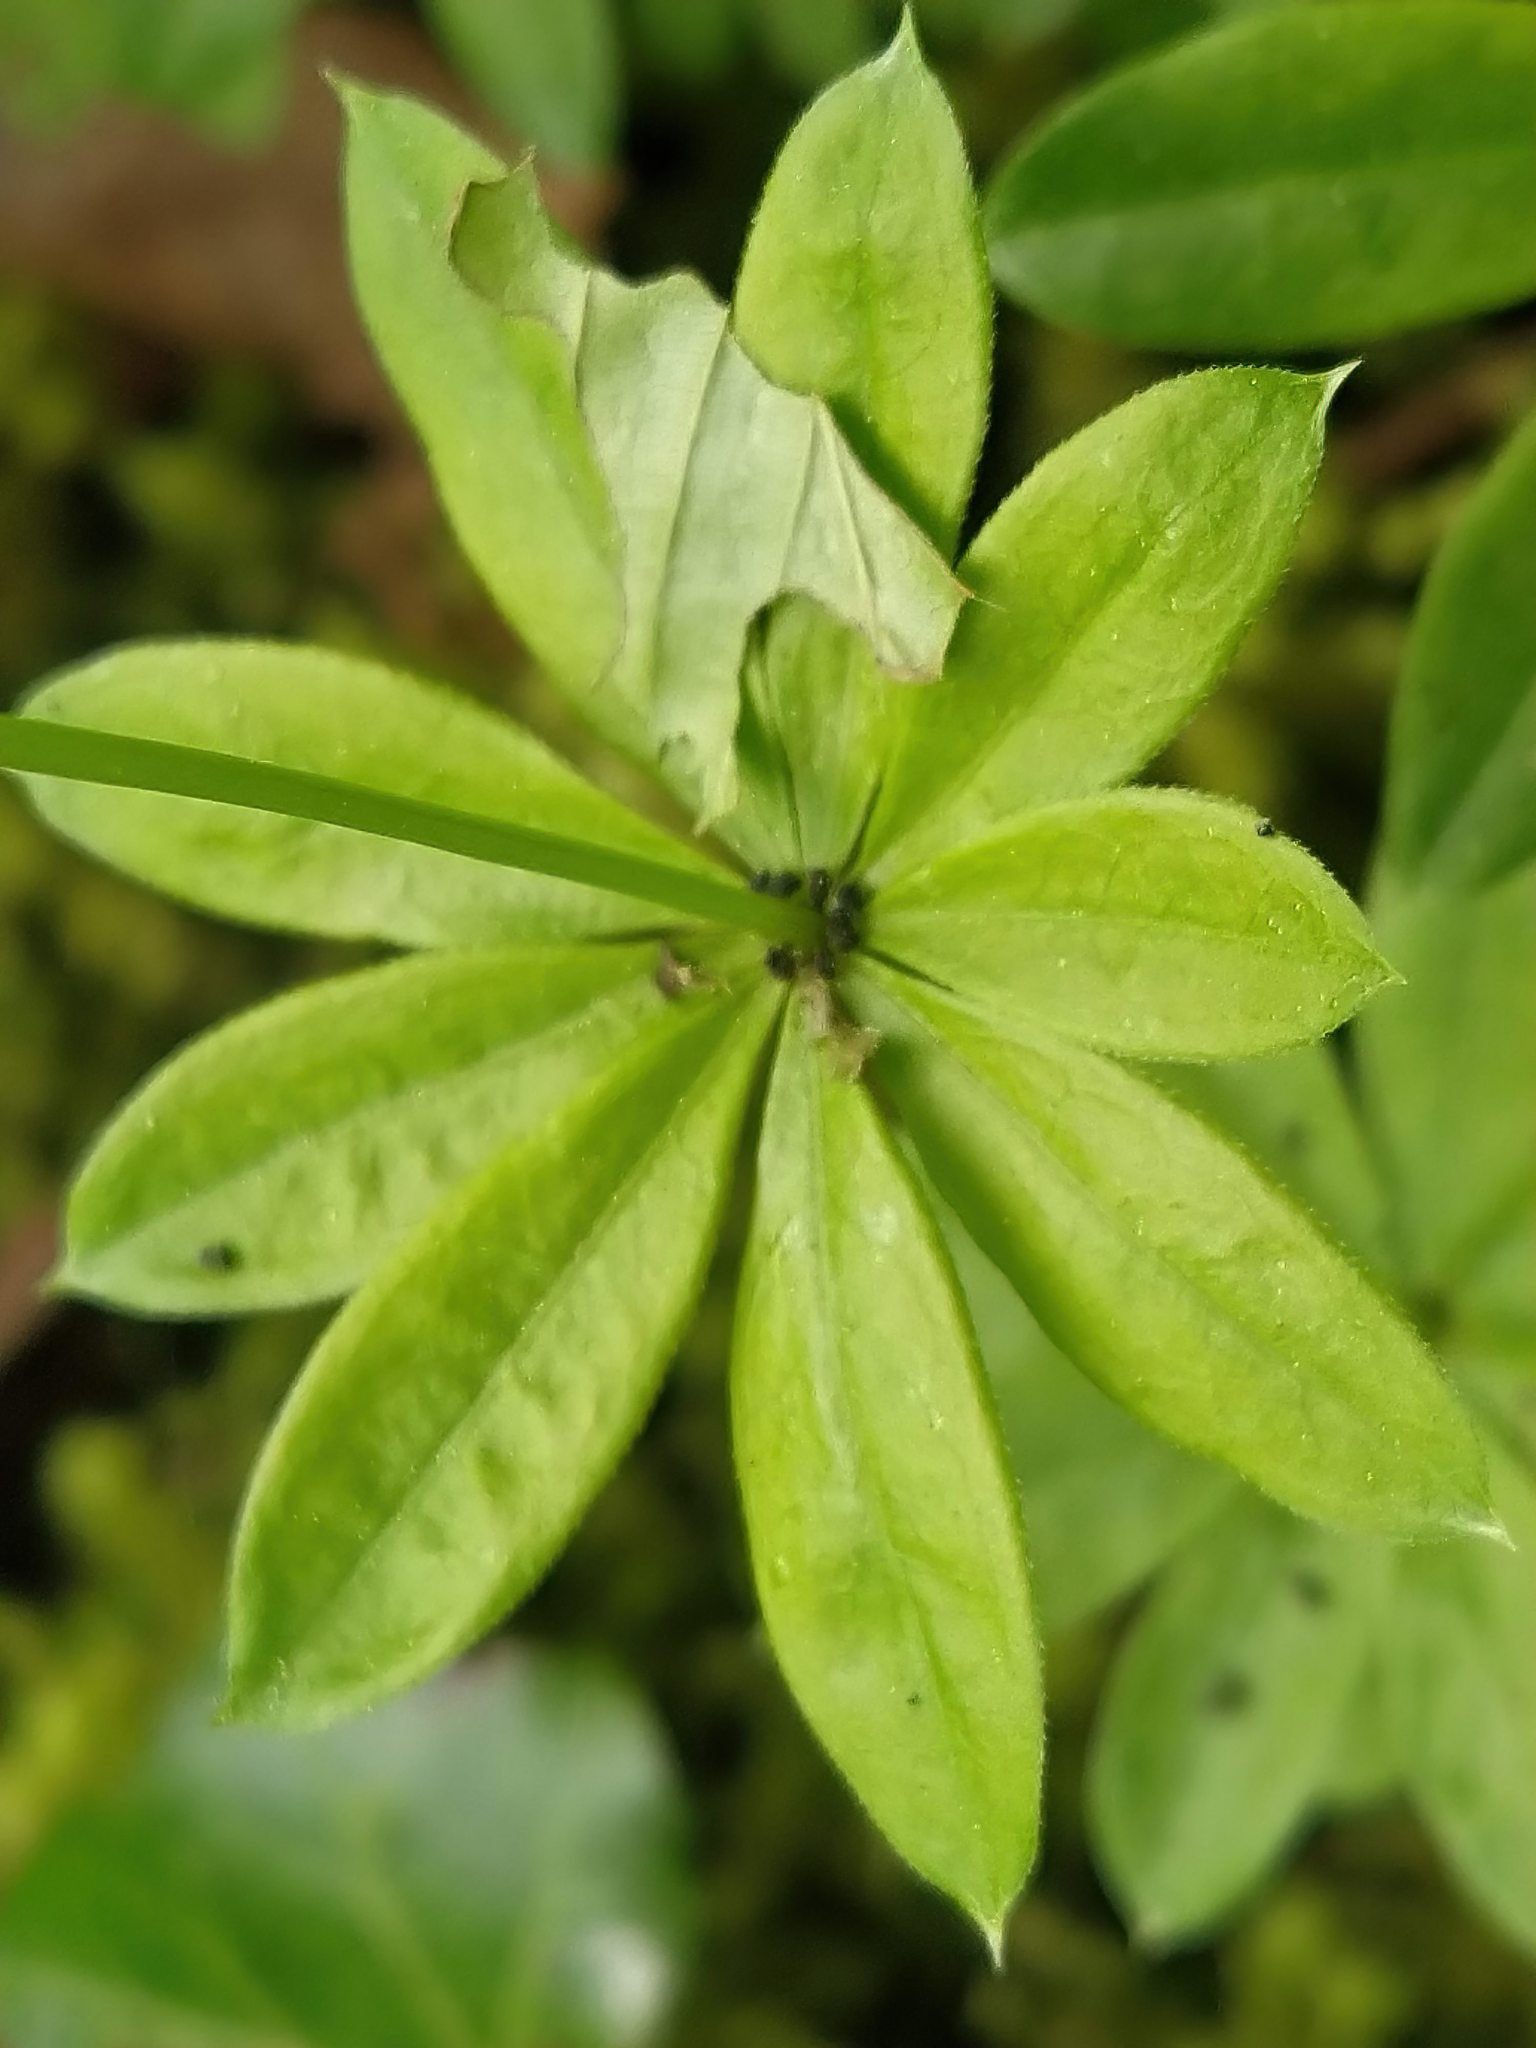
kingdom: Plantae
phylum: Tracheophyta
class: Magnoliopsida
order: Gentianales
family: Rubiaceae
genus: Galium
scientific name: Galium odoratum
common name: Sweet woodruff
